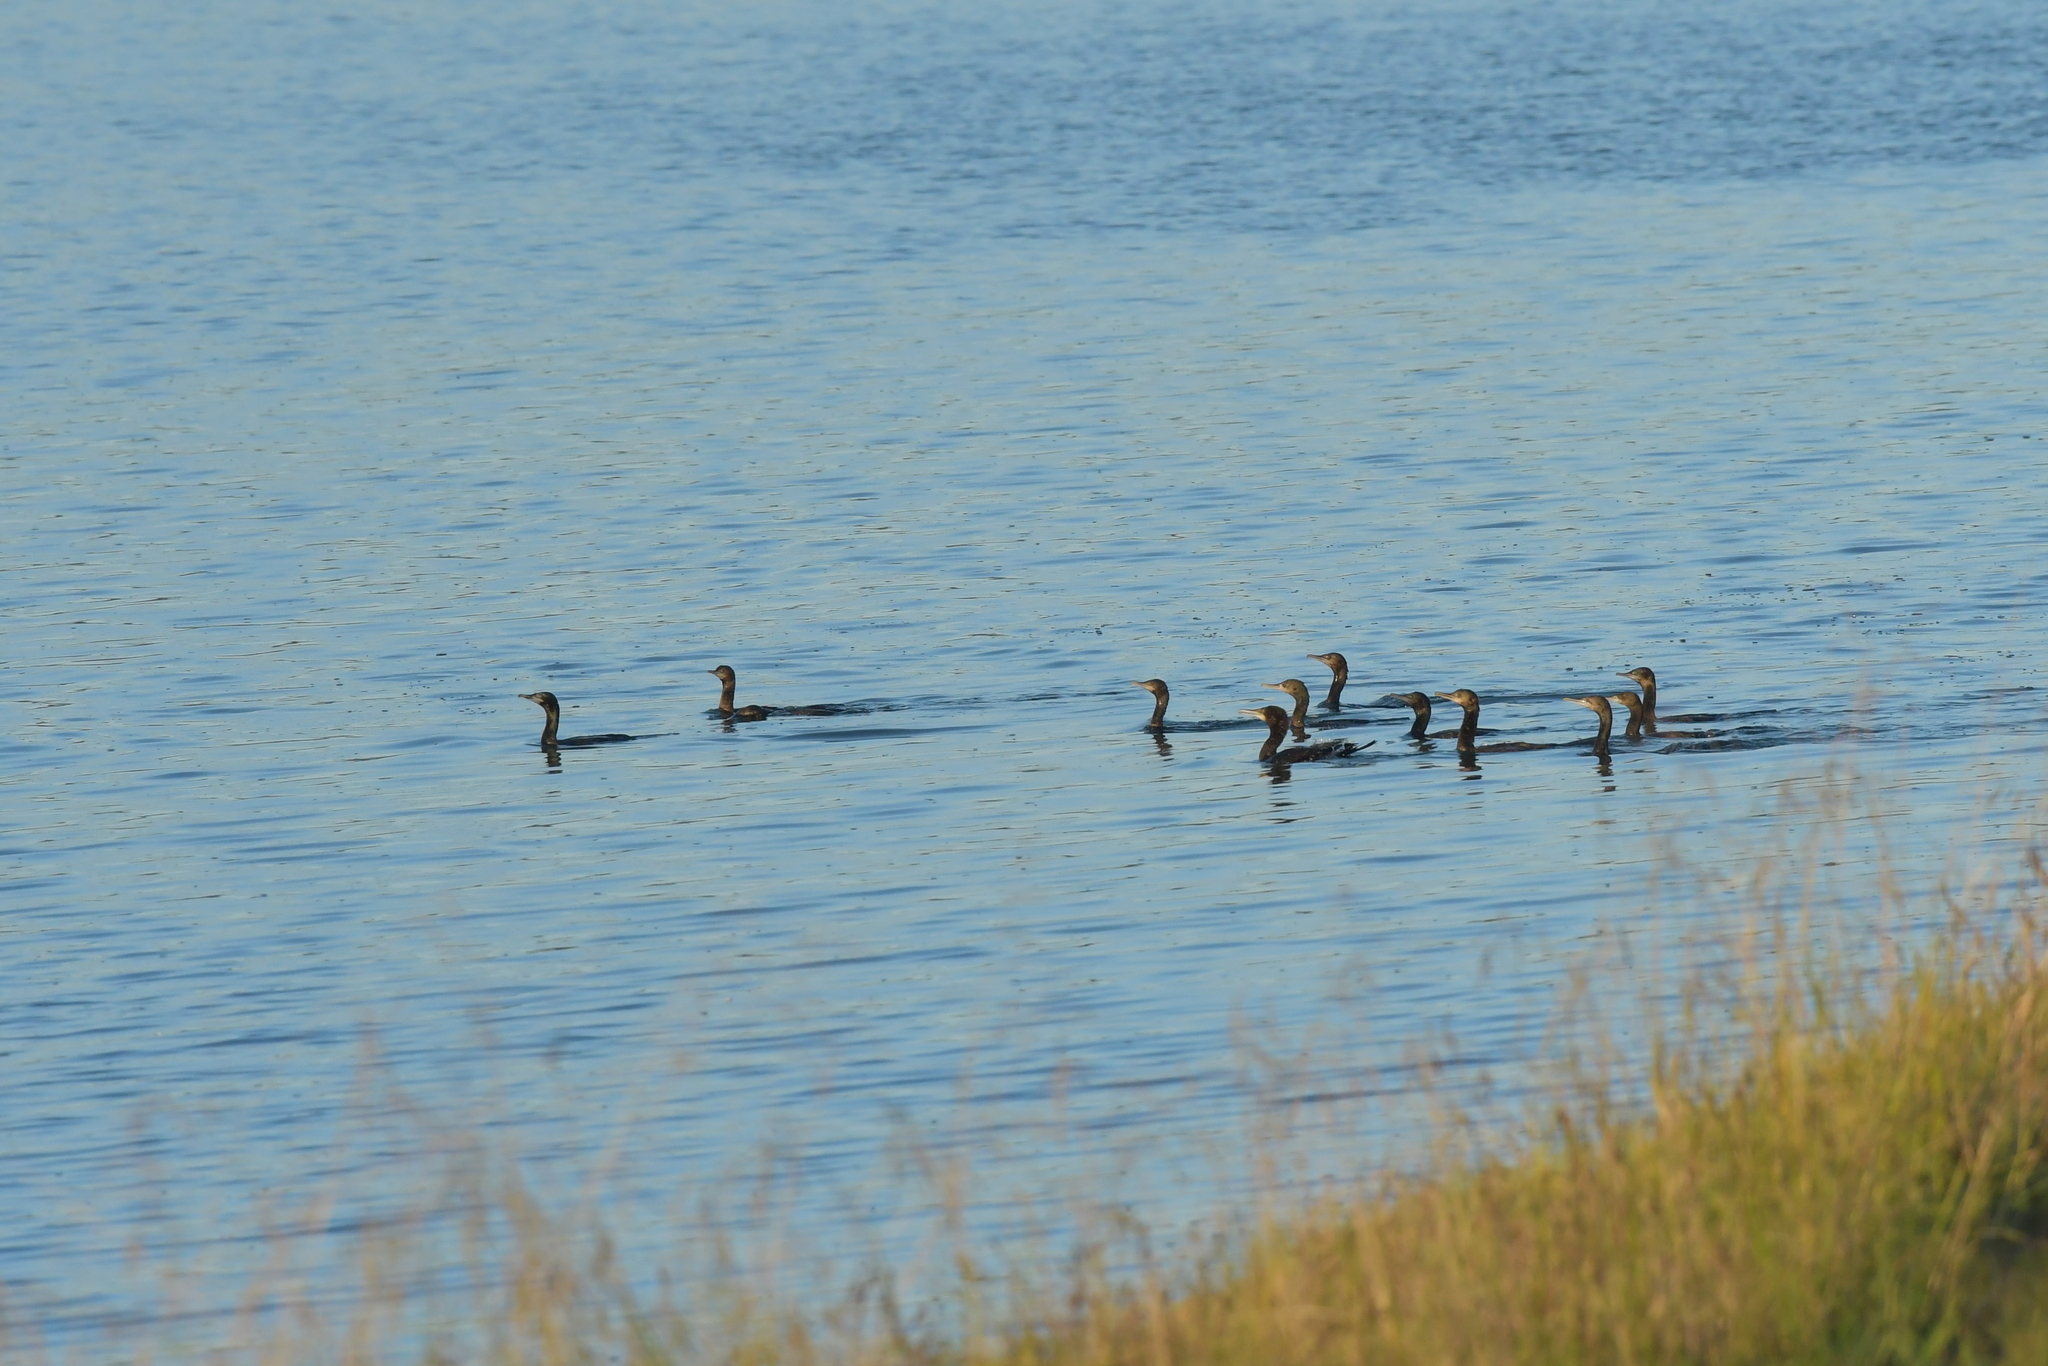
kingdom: Animalia
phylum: Chordata
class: Aves
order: Suliformes
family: Phalacrocoracidae
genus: Phalacrocorax
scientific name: Phalacrocorax sulcirostris
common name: Little black cormorant
